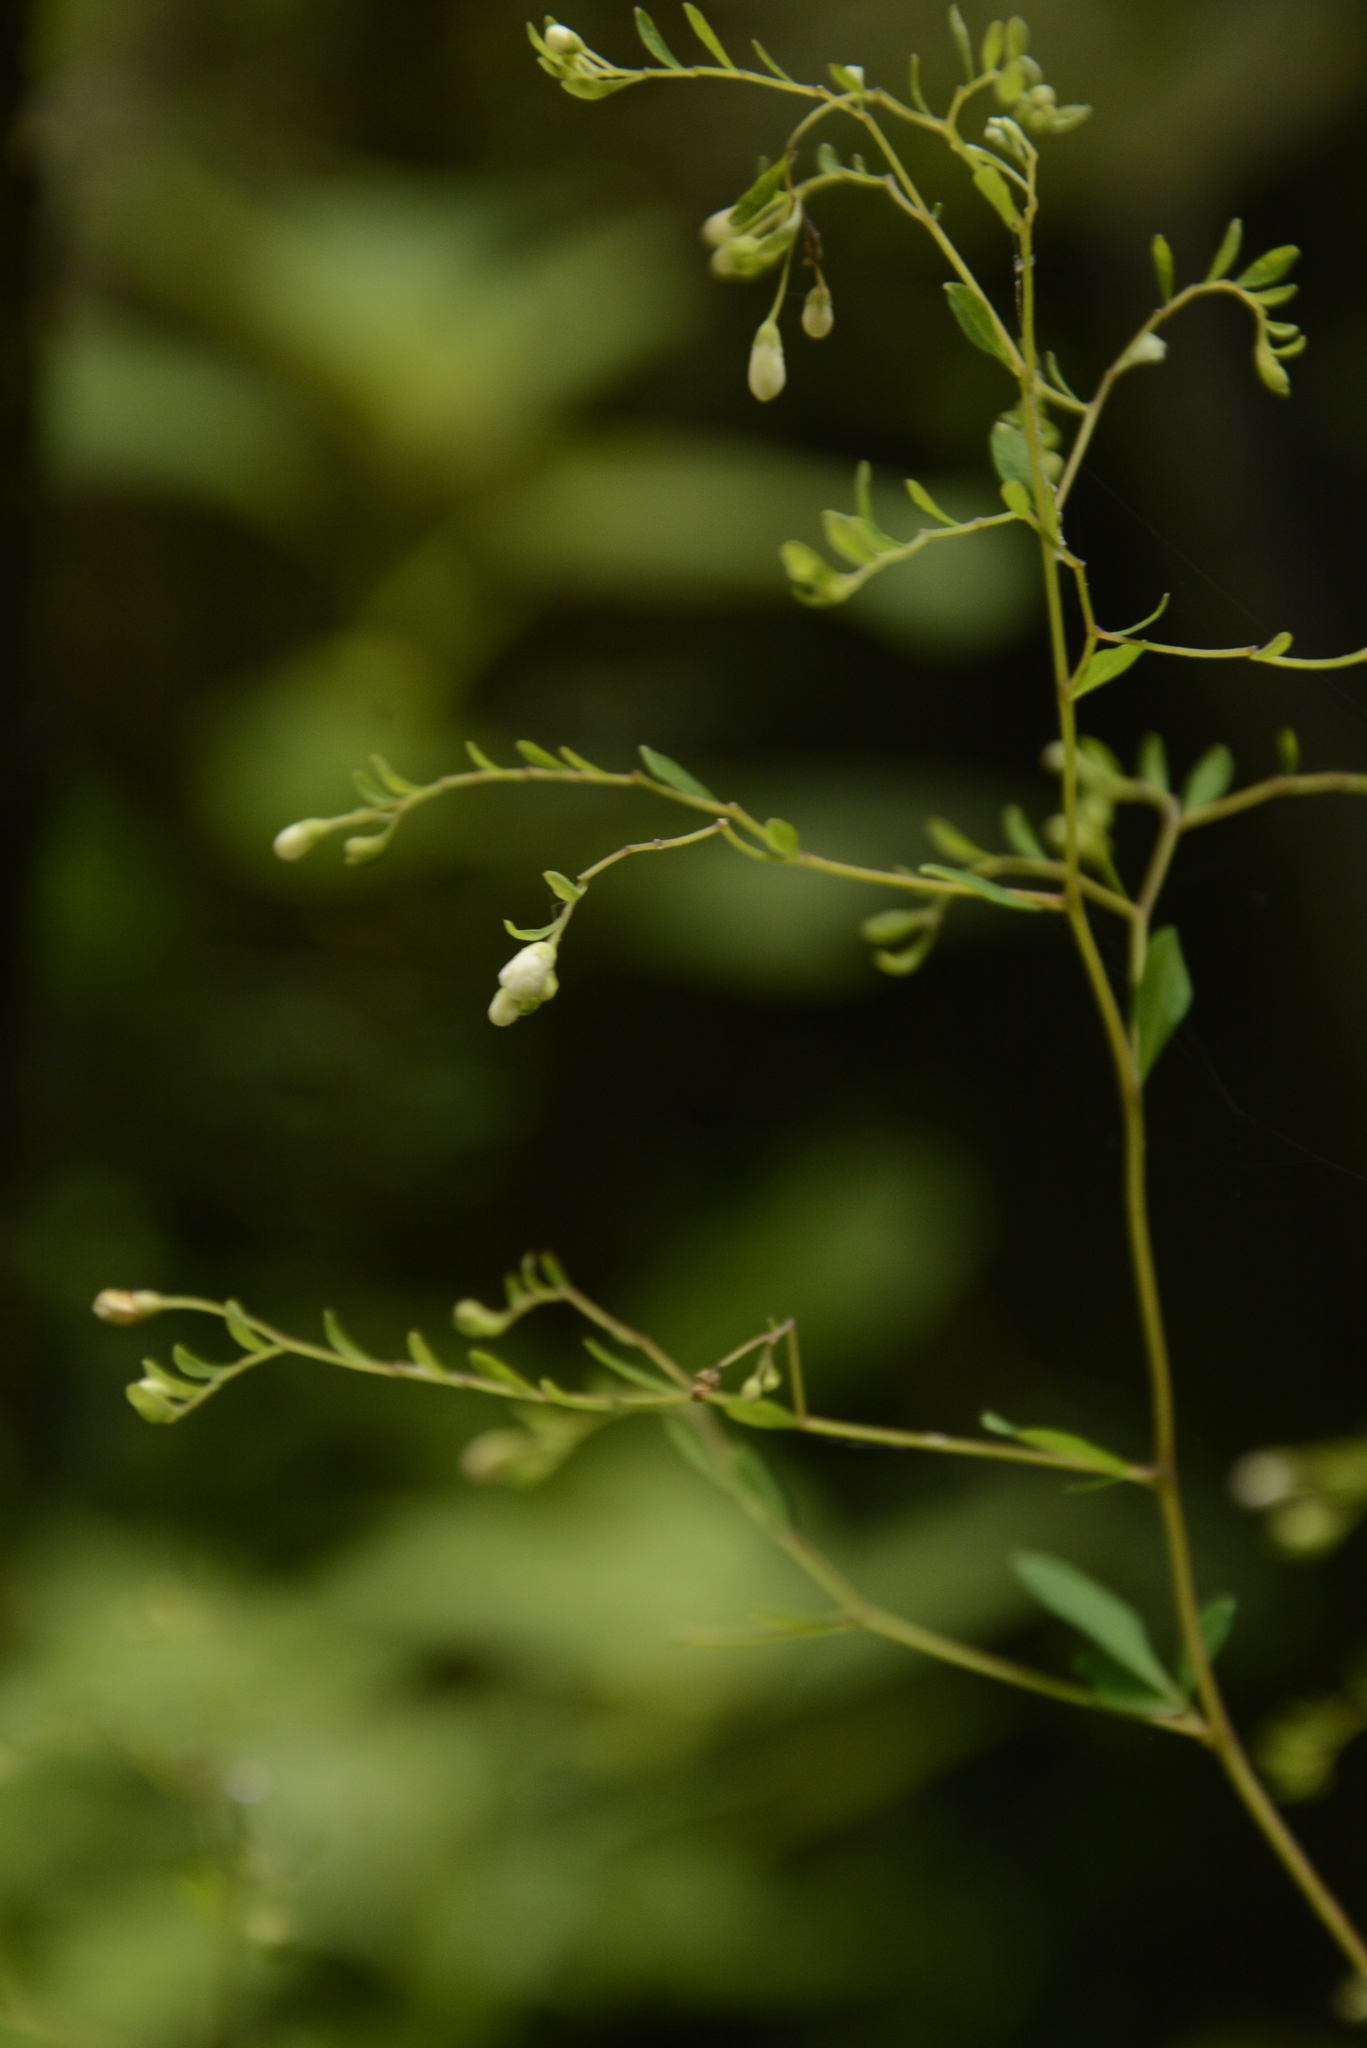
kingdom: Plantae
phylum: Tracheophyta
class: Magnoliopsida
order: Sapindales
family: Rutaceae
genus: Boenninghausenia
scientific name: Boenninghausenia albiflora
